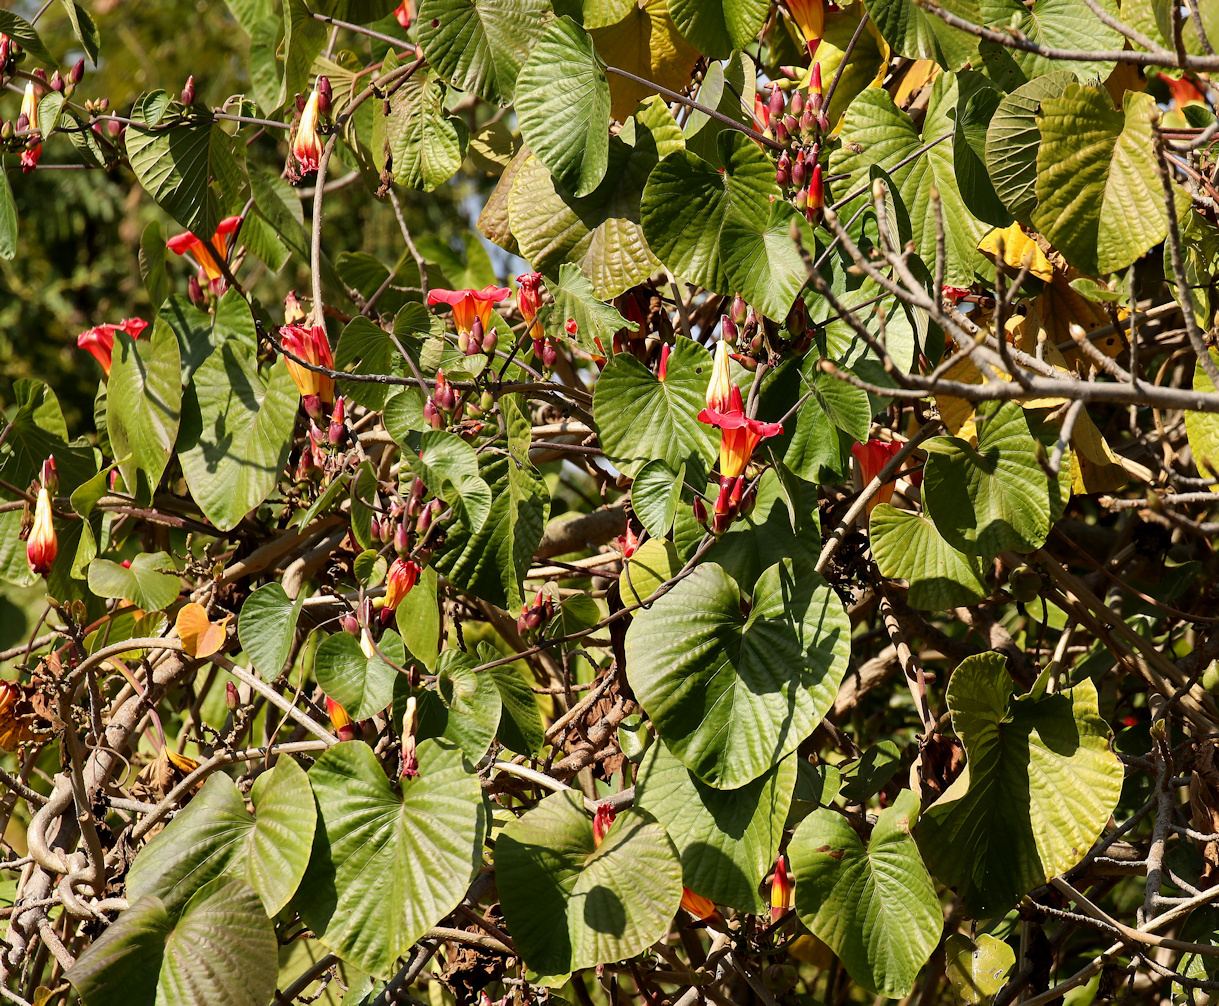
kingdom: Plantae
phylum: Tracheophyta
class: Magnoliopsida
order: Solanales
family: Convolvulaceae
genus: Stictocardia
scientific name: Stictocardia beraviensis
